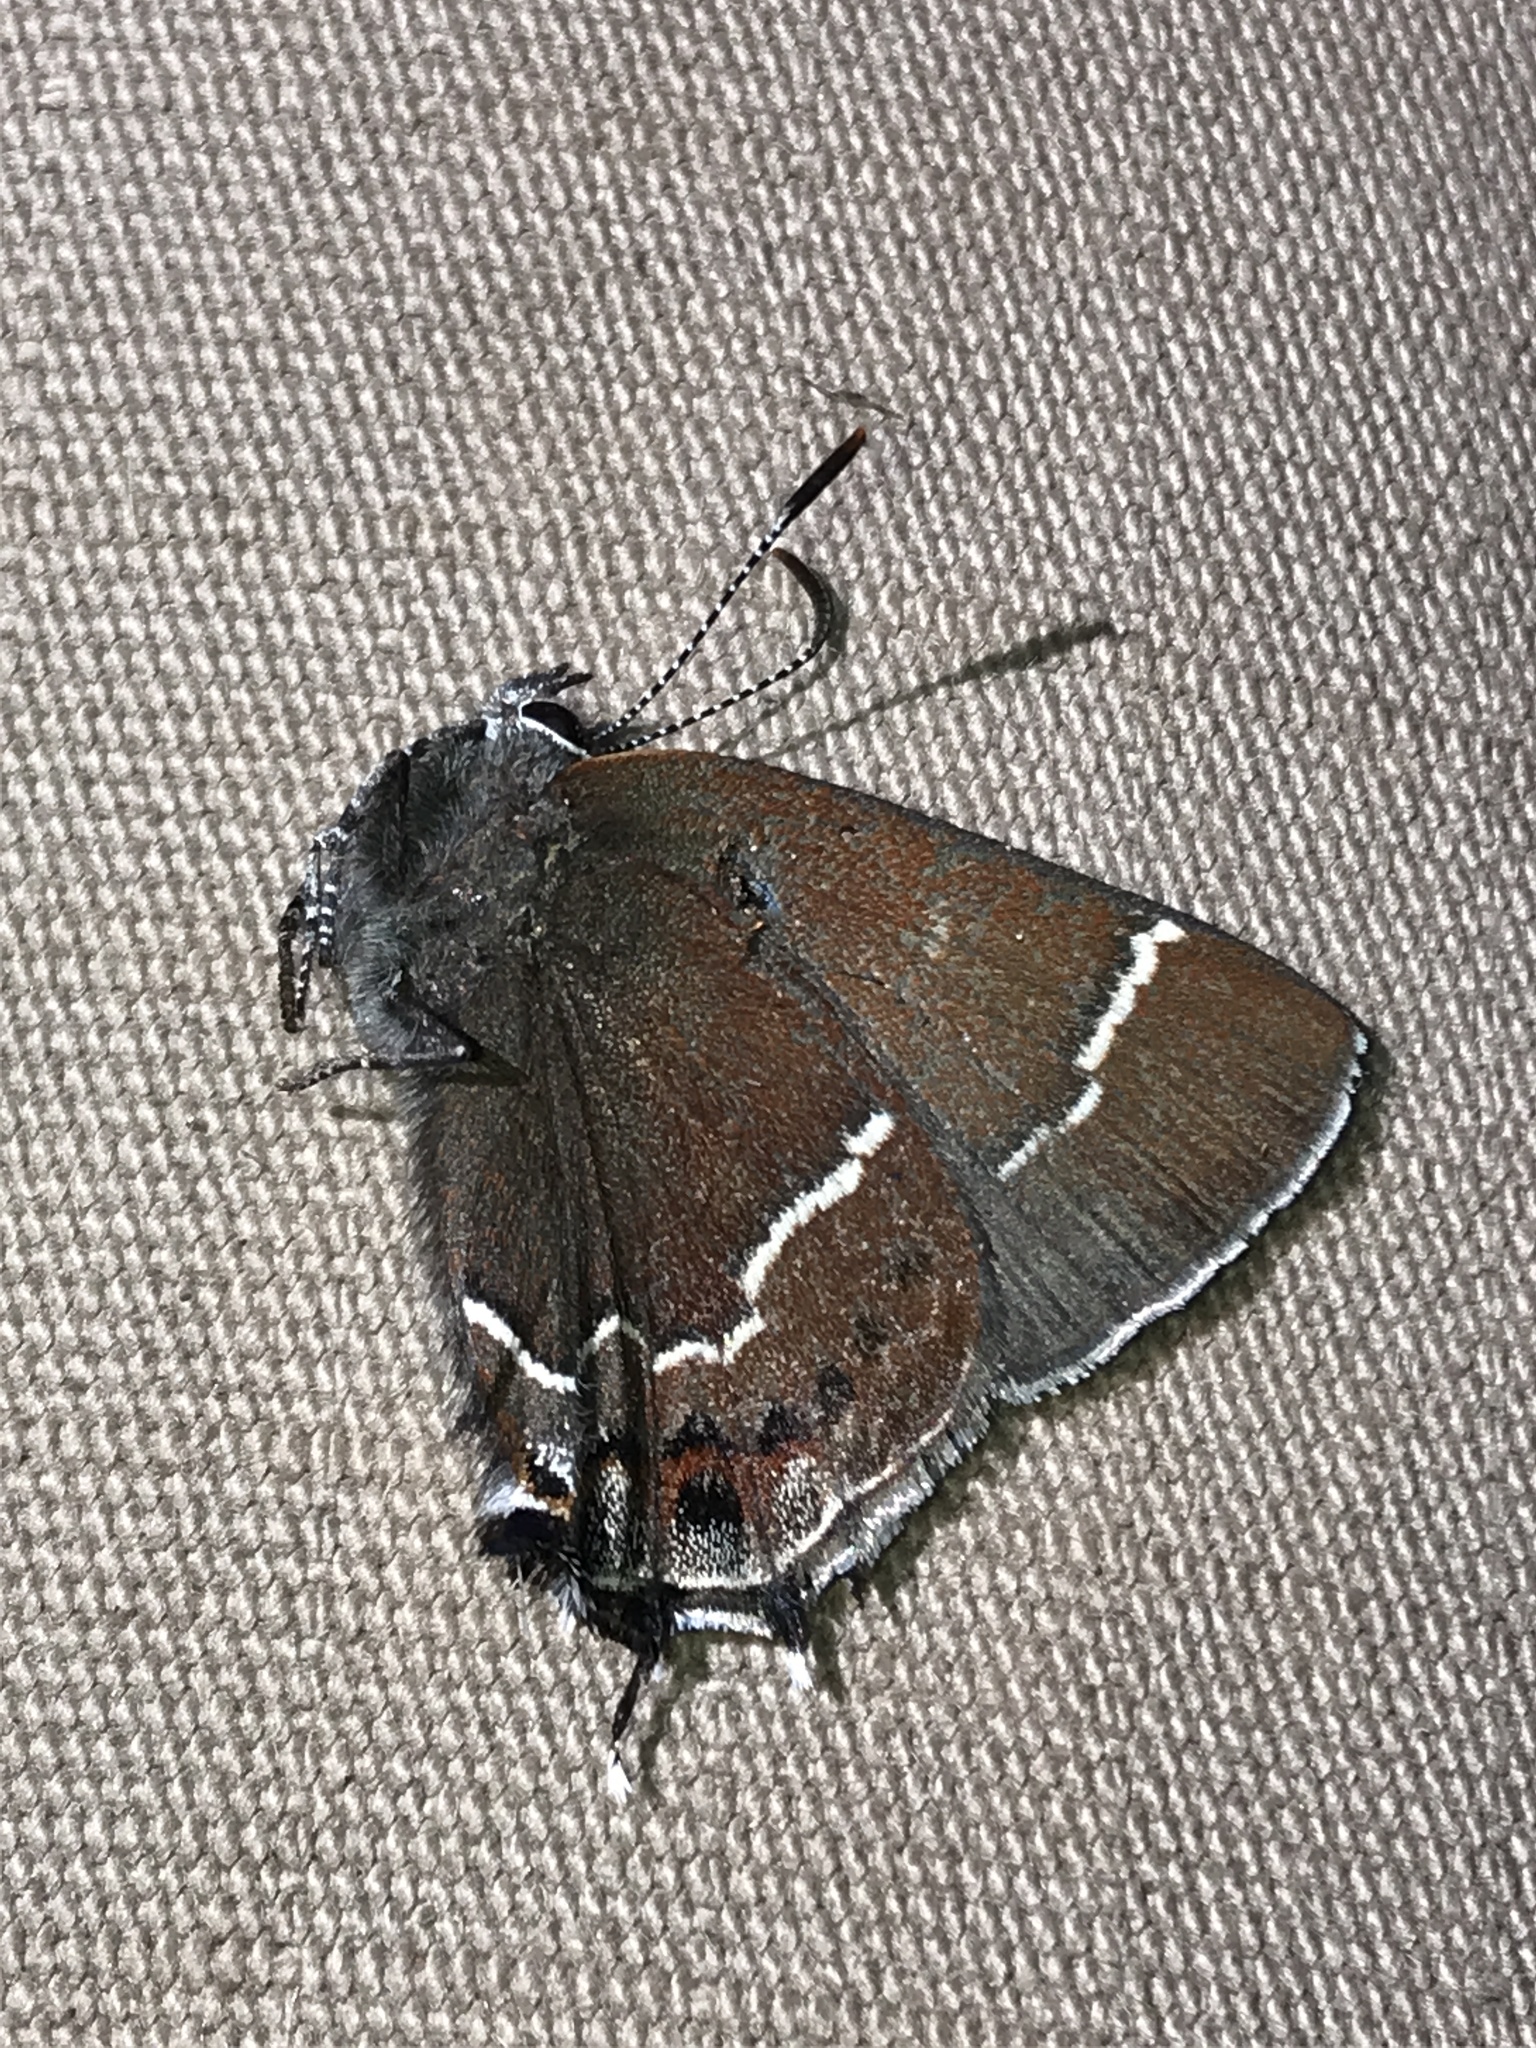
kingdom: Animalia
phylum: Arthropoda
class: Insecta
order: Lepidoptera
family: Lycaenidae
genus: Mitoura
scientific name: Mitoura spinetorum
